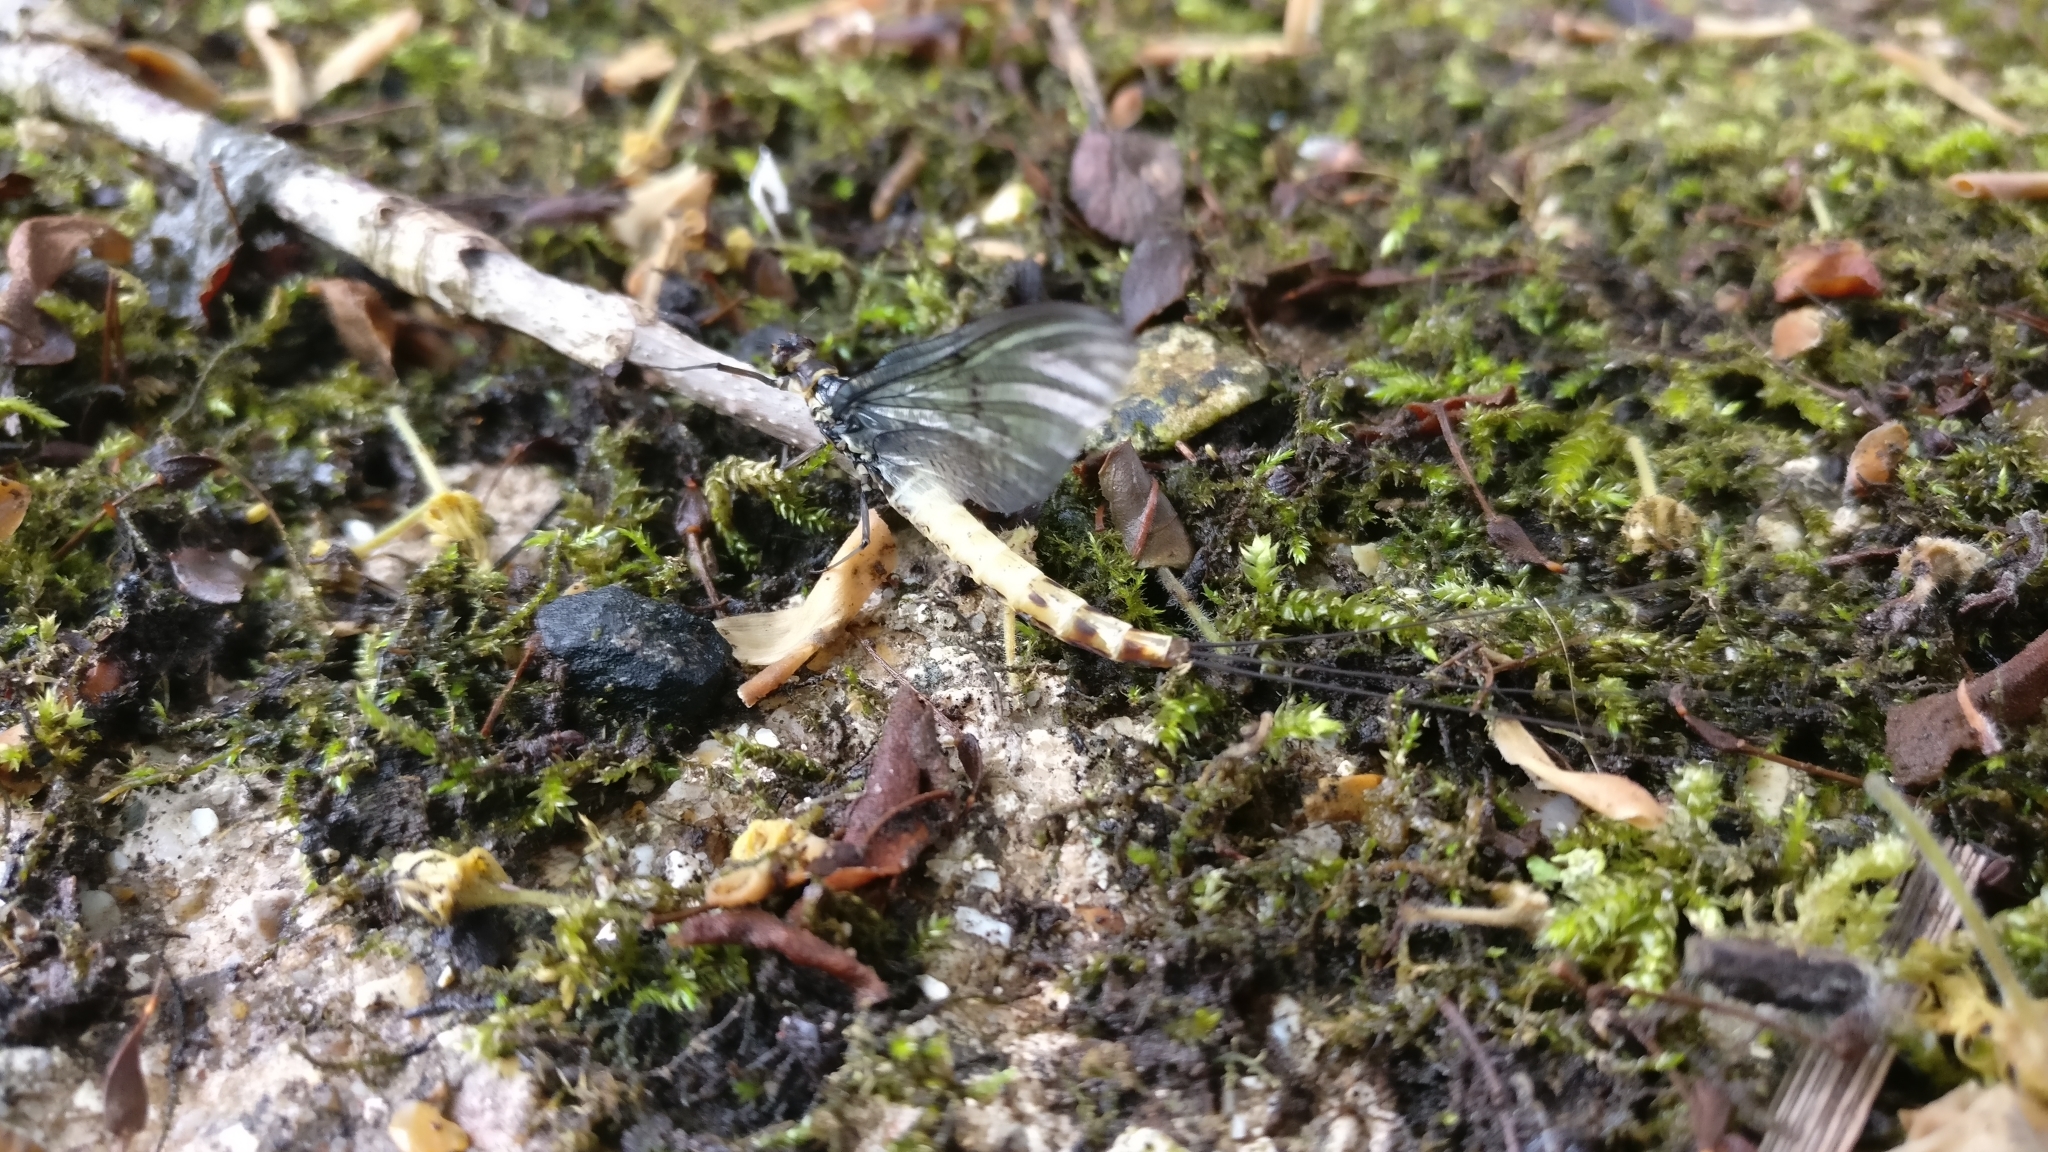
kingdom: Animalia
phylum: Arthropoda
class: Insecta
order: Ephemeroptera
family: Ephemeridae
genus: Ephemera
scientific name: Ephemera danica
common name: Green dun
